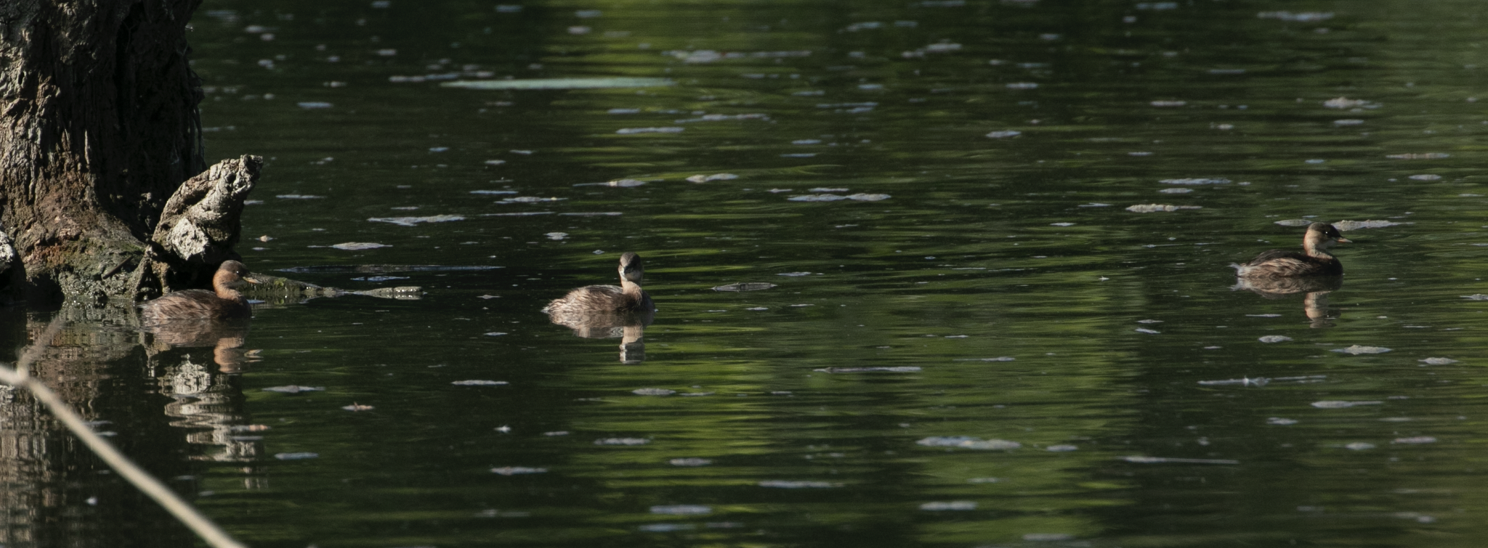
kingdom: Animalia
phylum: Chordata
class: Aves
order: Podicipediformes
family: Podicipedidae
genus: Tachybaptus
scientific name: Tachybaptus ruficollis
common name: Little grebe
